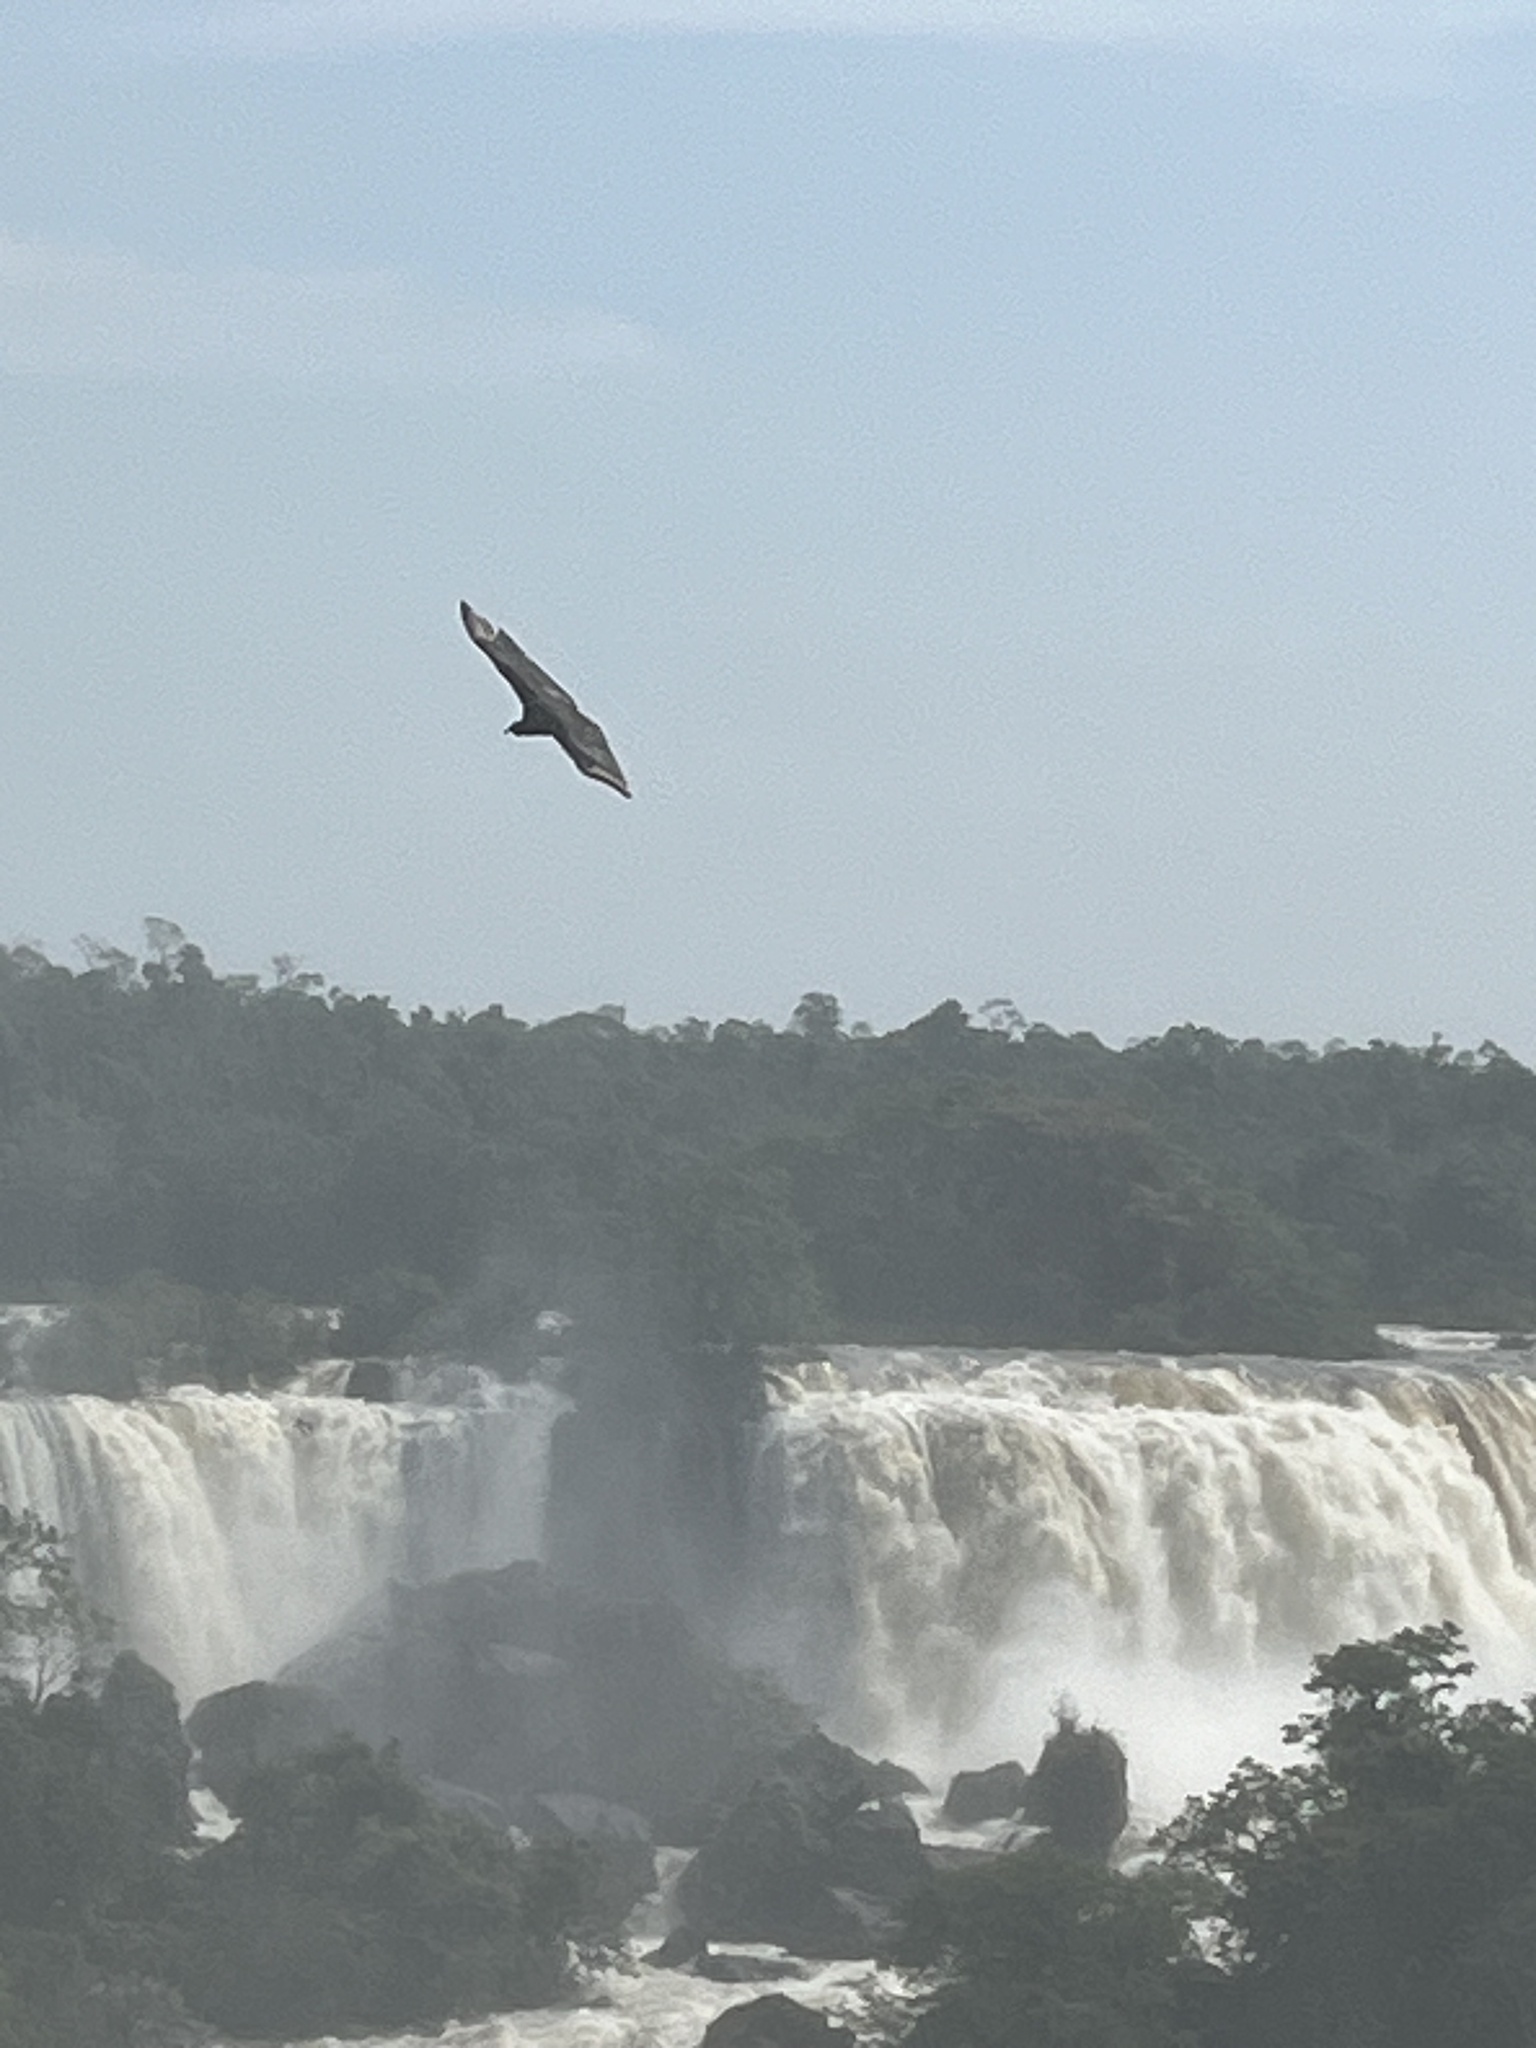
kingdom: Animalia
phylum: Chordata
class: Aves
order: Accipitriformes
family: Cathartidae
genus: Coragyps
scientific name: Coragyps atratus
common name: Black vulture
